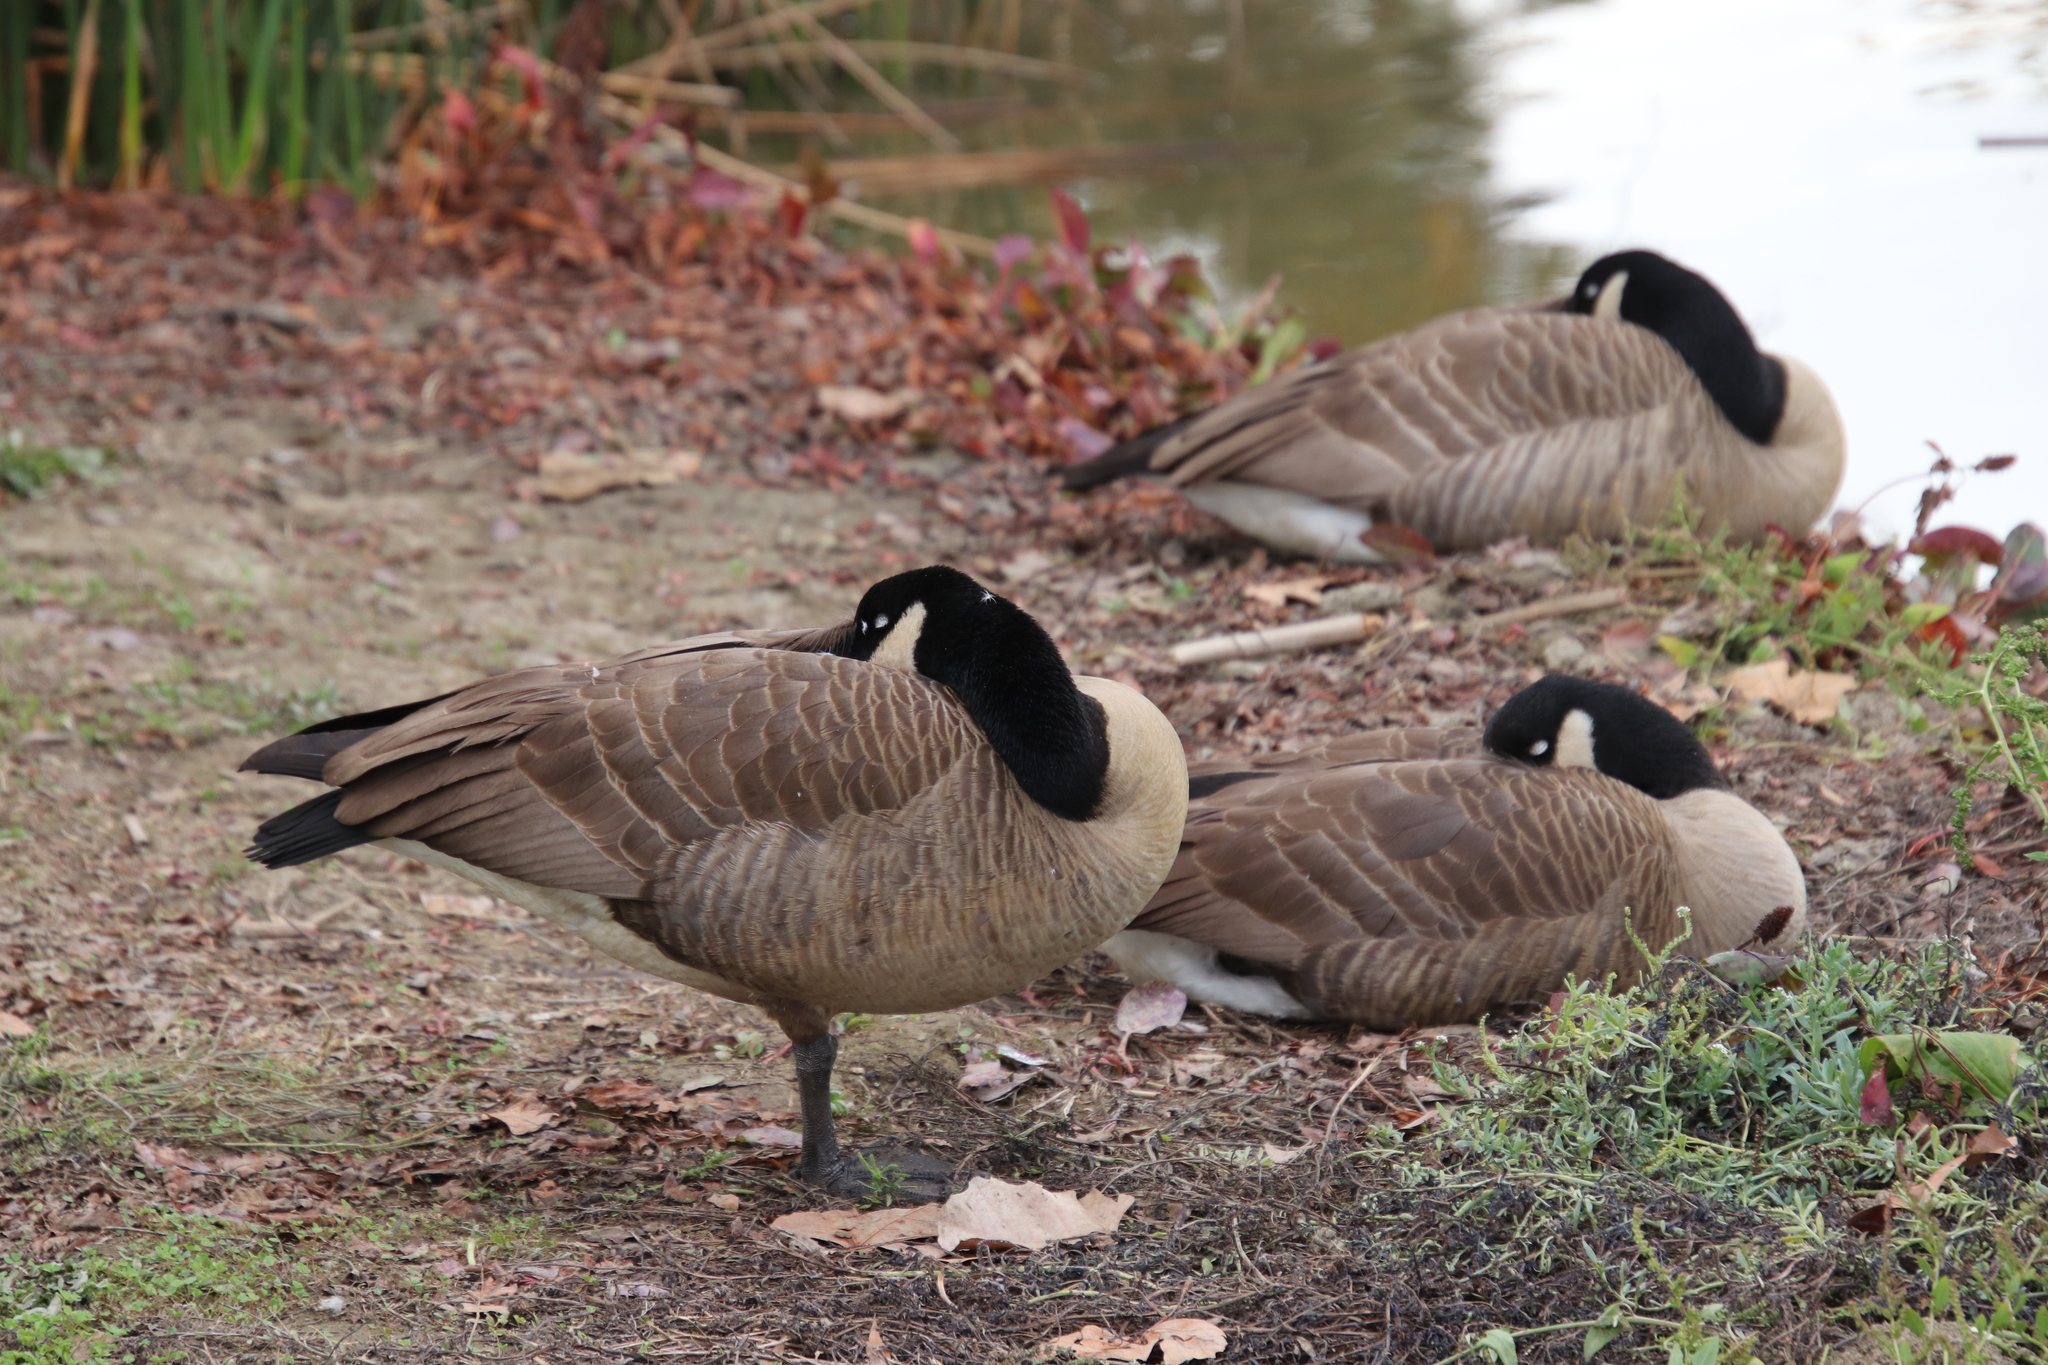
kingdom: Animalia
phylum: Chordata
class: Aves
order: Anseriformes
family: Anatidae
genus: Branta
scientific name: Branta canadensis
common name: Canada goose
